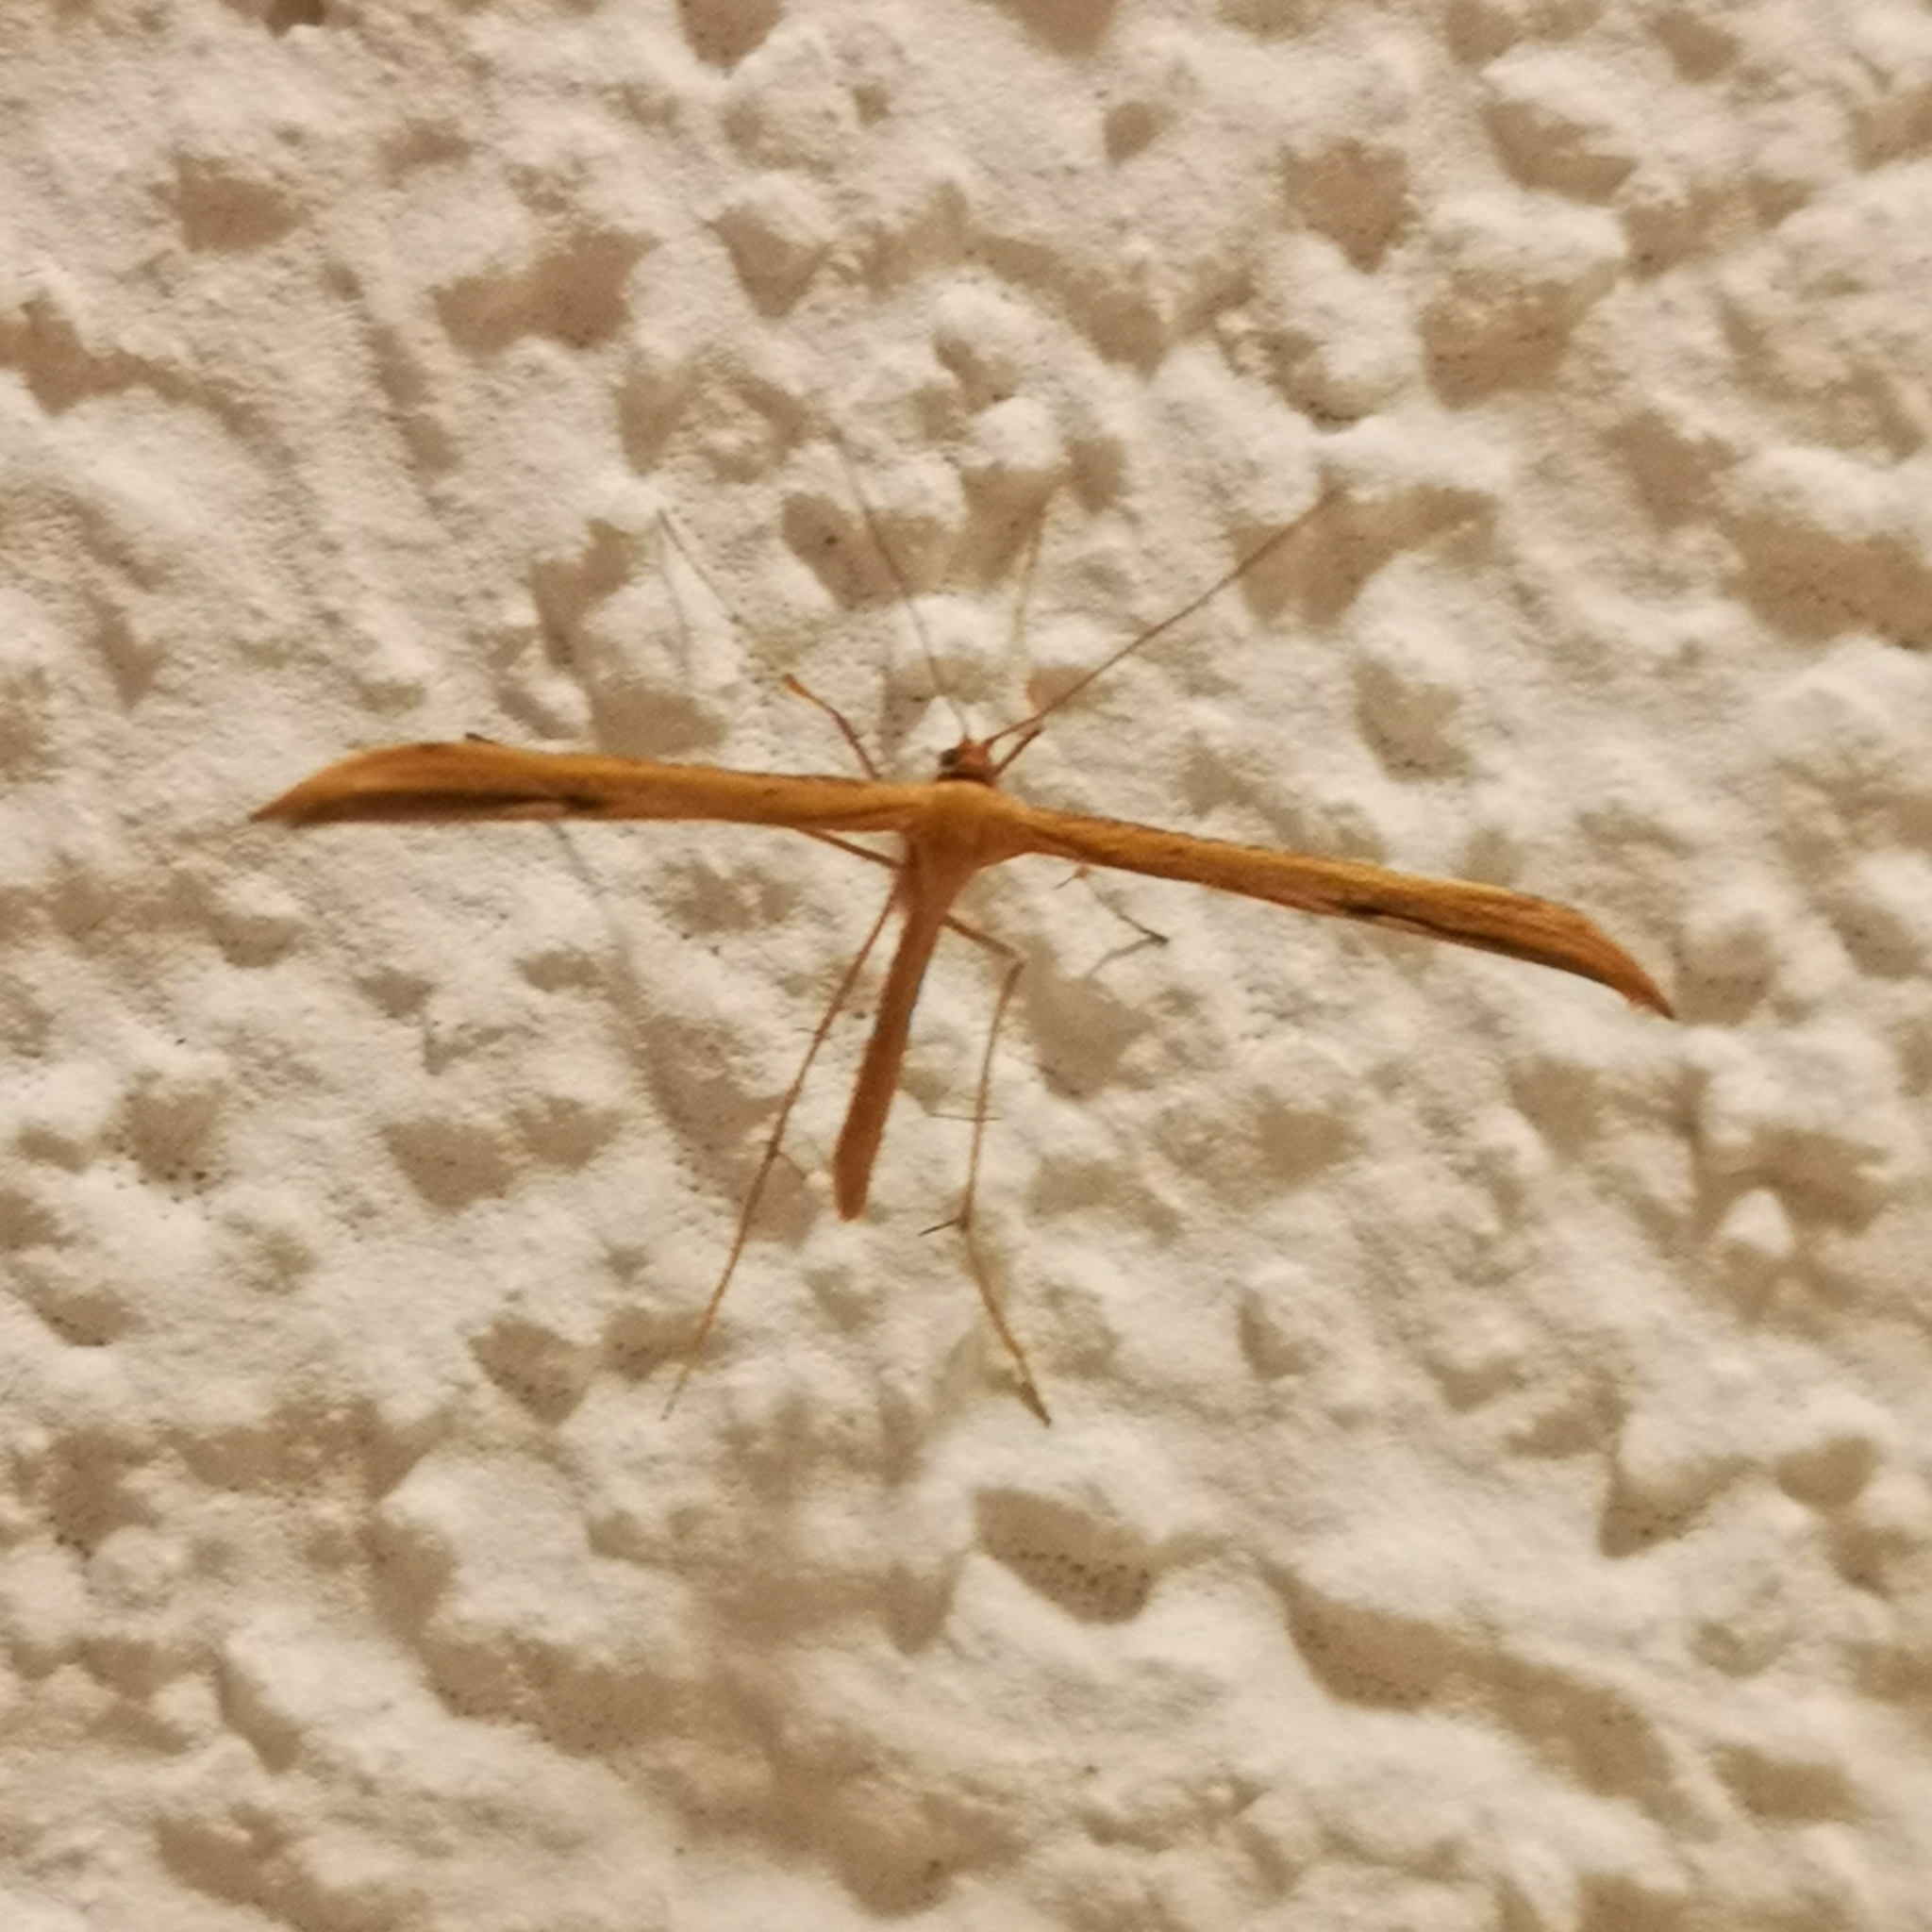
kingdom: Animalia
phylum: Arthropoda
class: Insecta
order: Lepidoptera
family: Pterophoridae
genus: Emmelina
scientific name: Emmelina monodactyla
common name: Common plume
